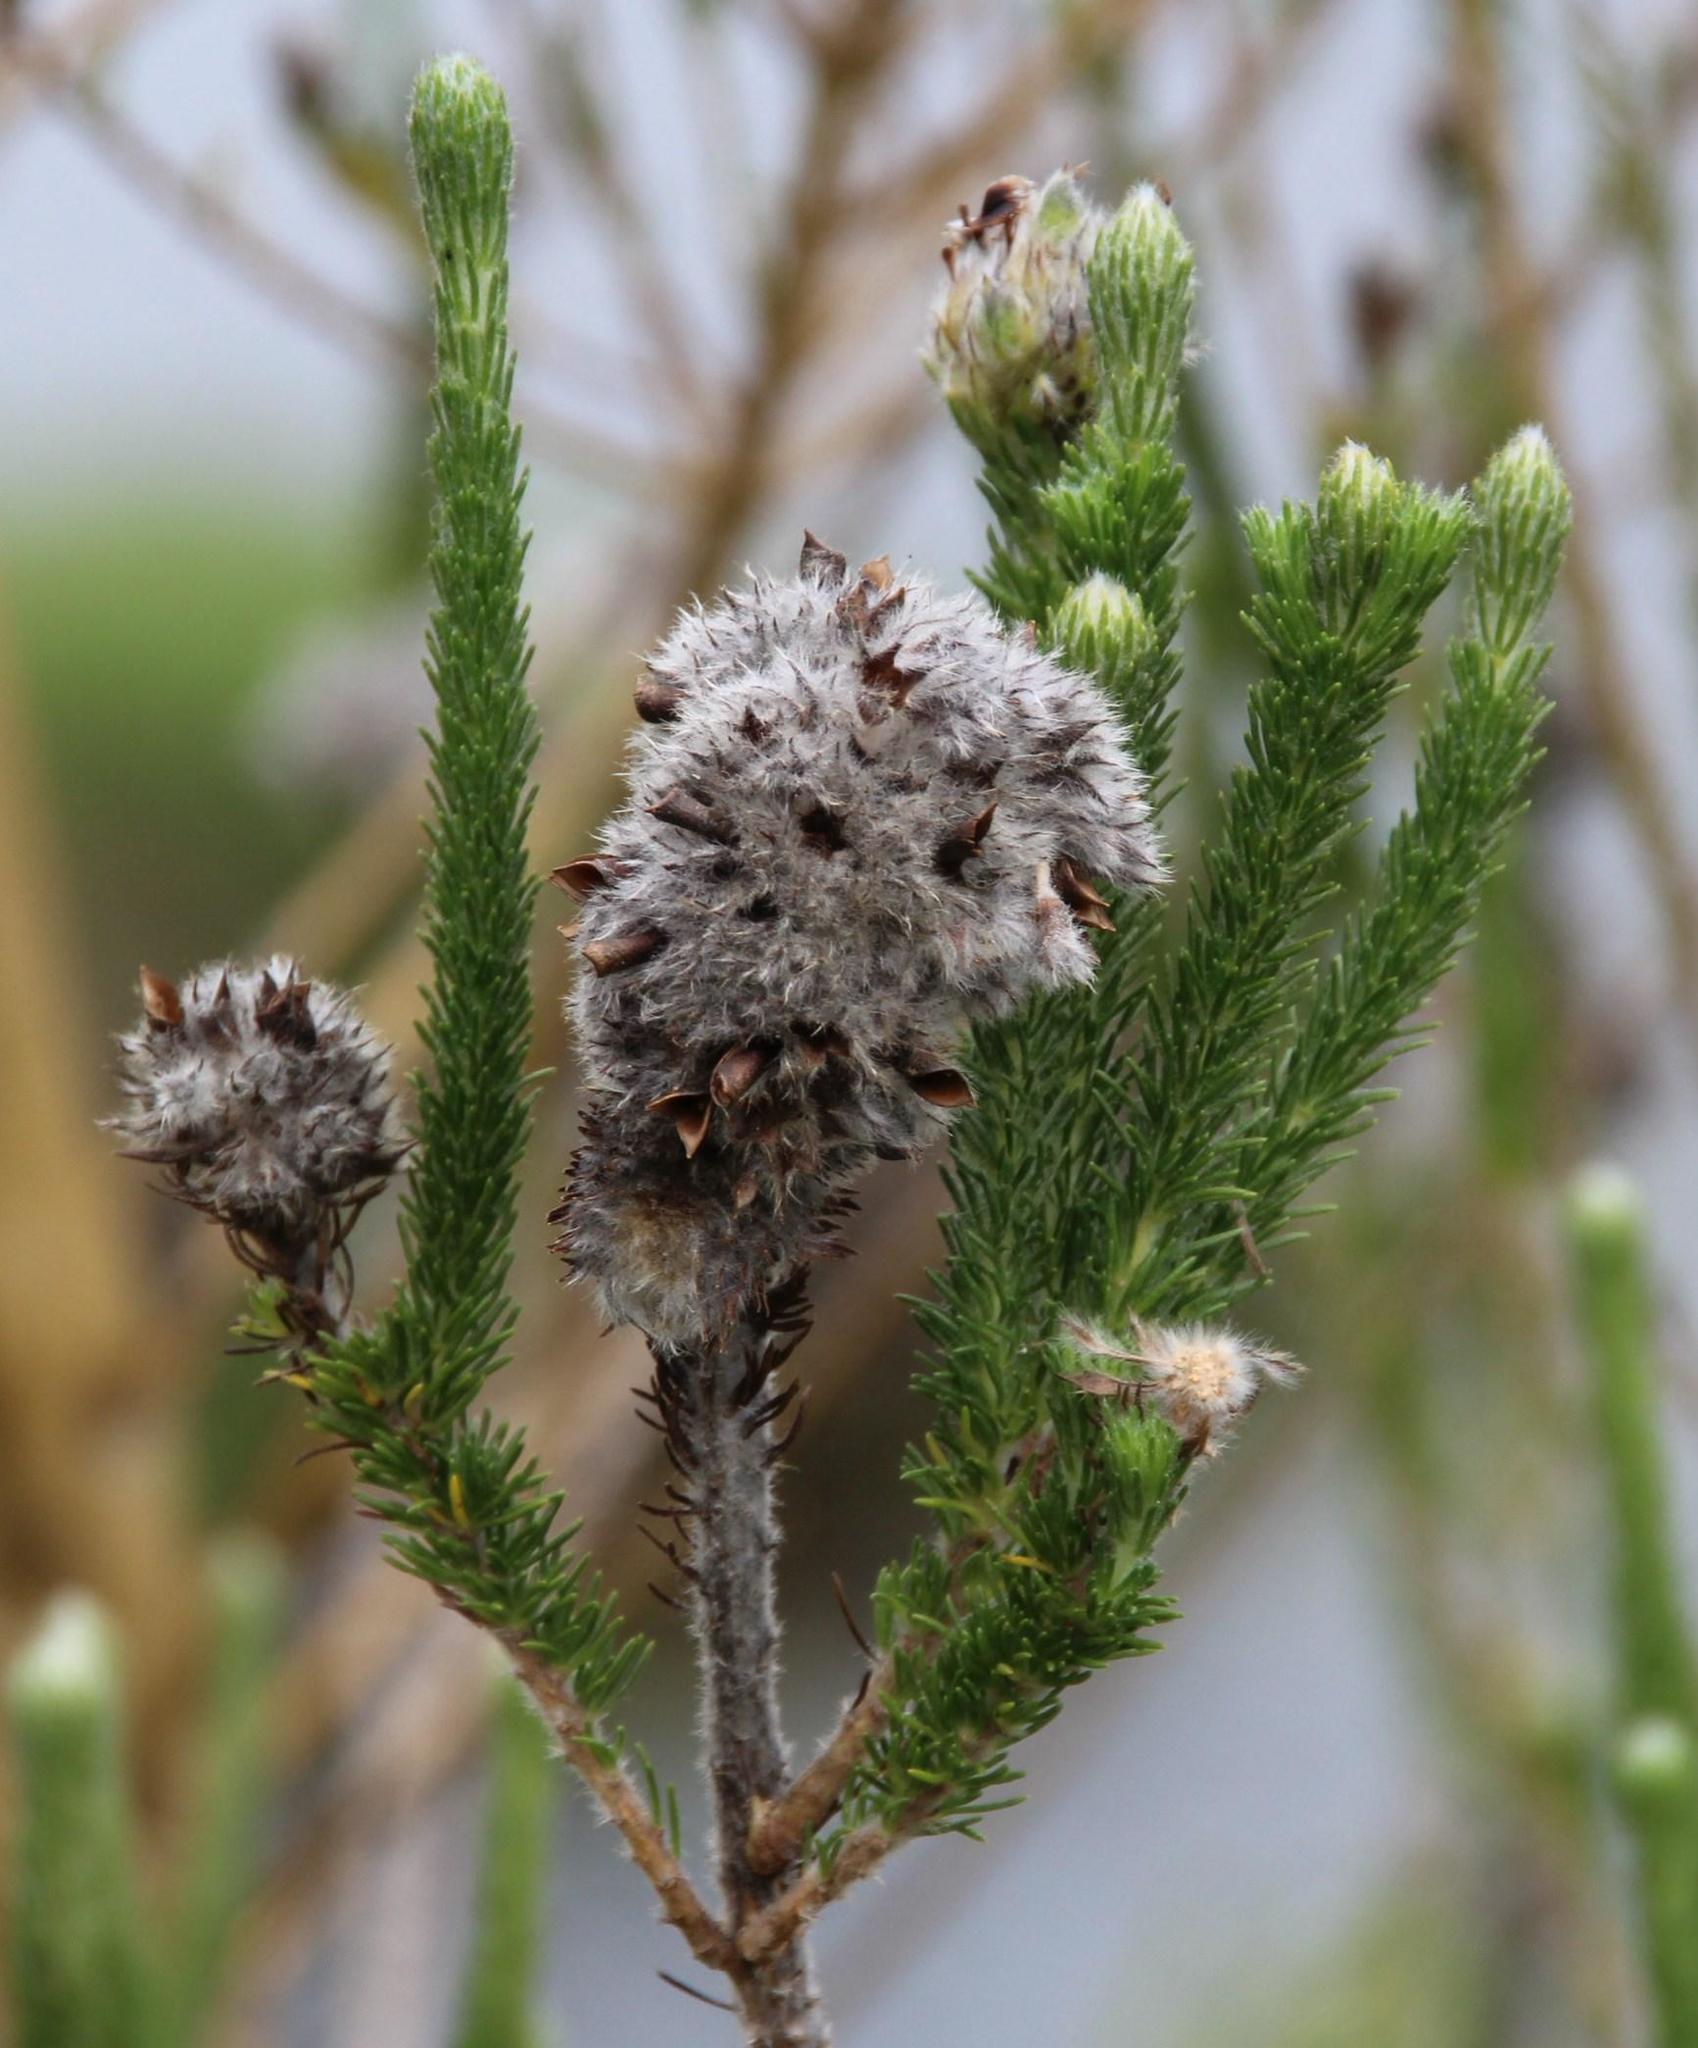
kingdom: Plantae
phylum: Tracheophyta
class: Magnoliopsida
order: Fabales
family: Fabaceae
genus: Aspalathus
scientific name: Aspalathus cephalotes
